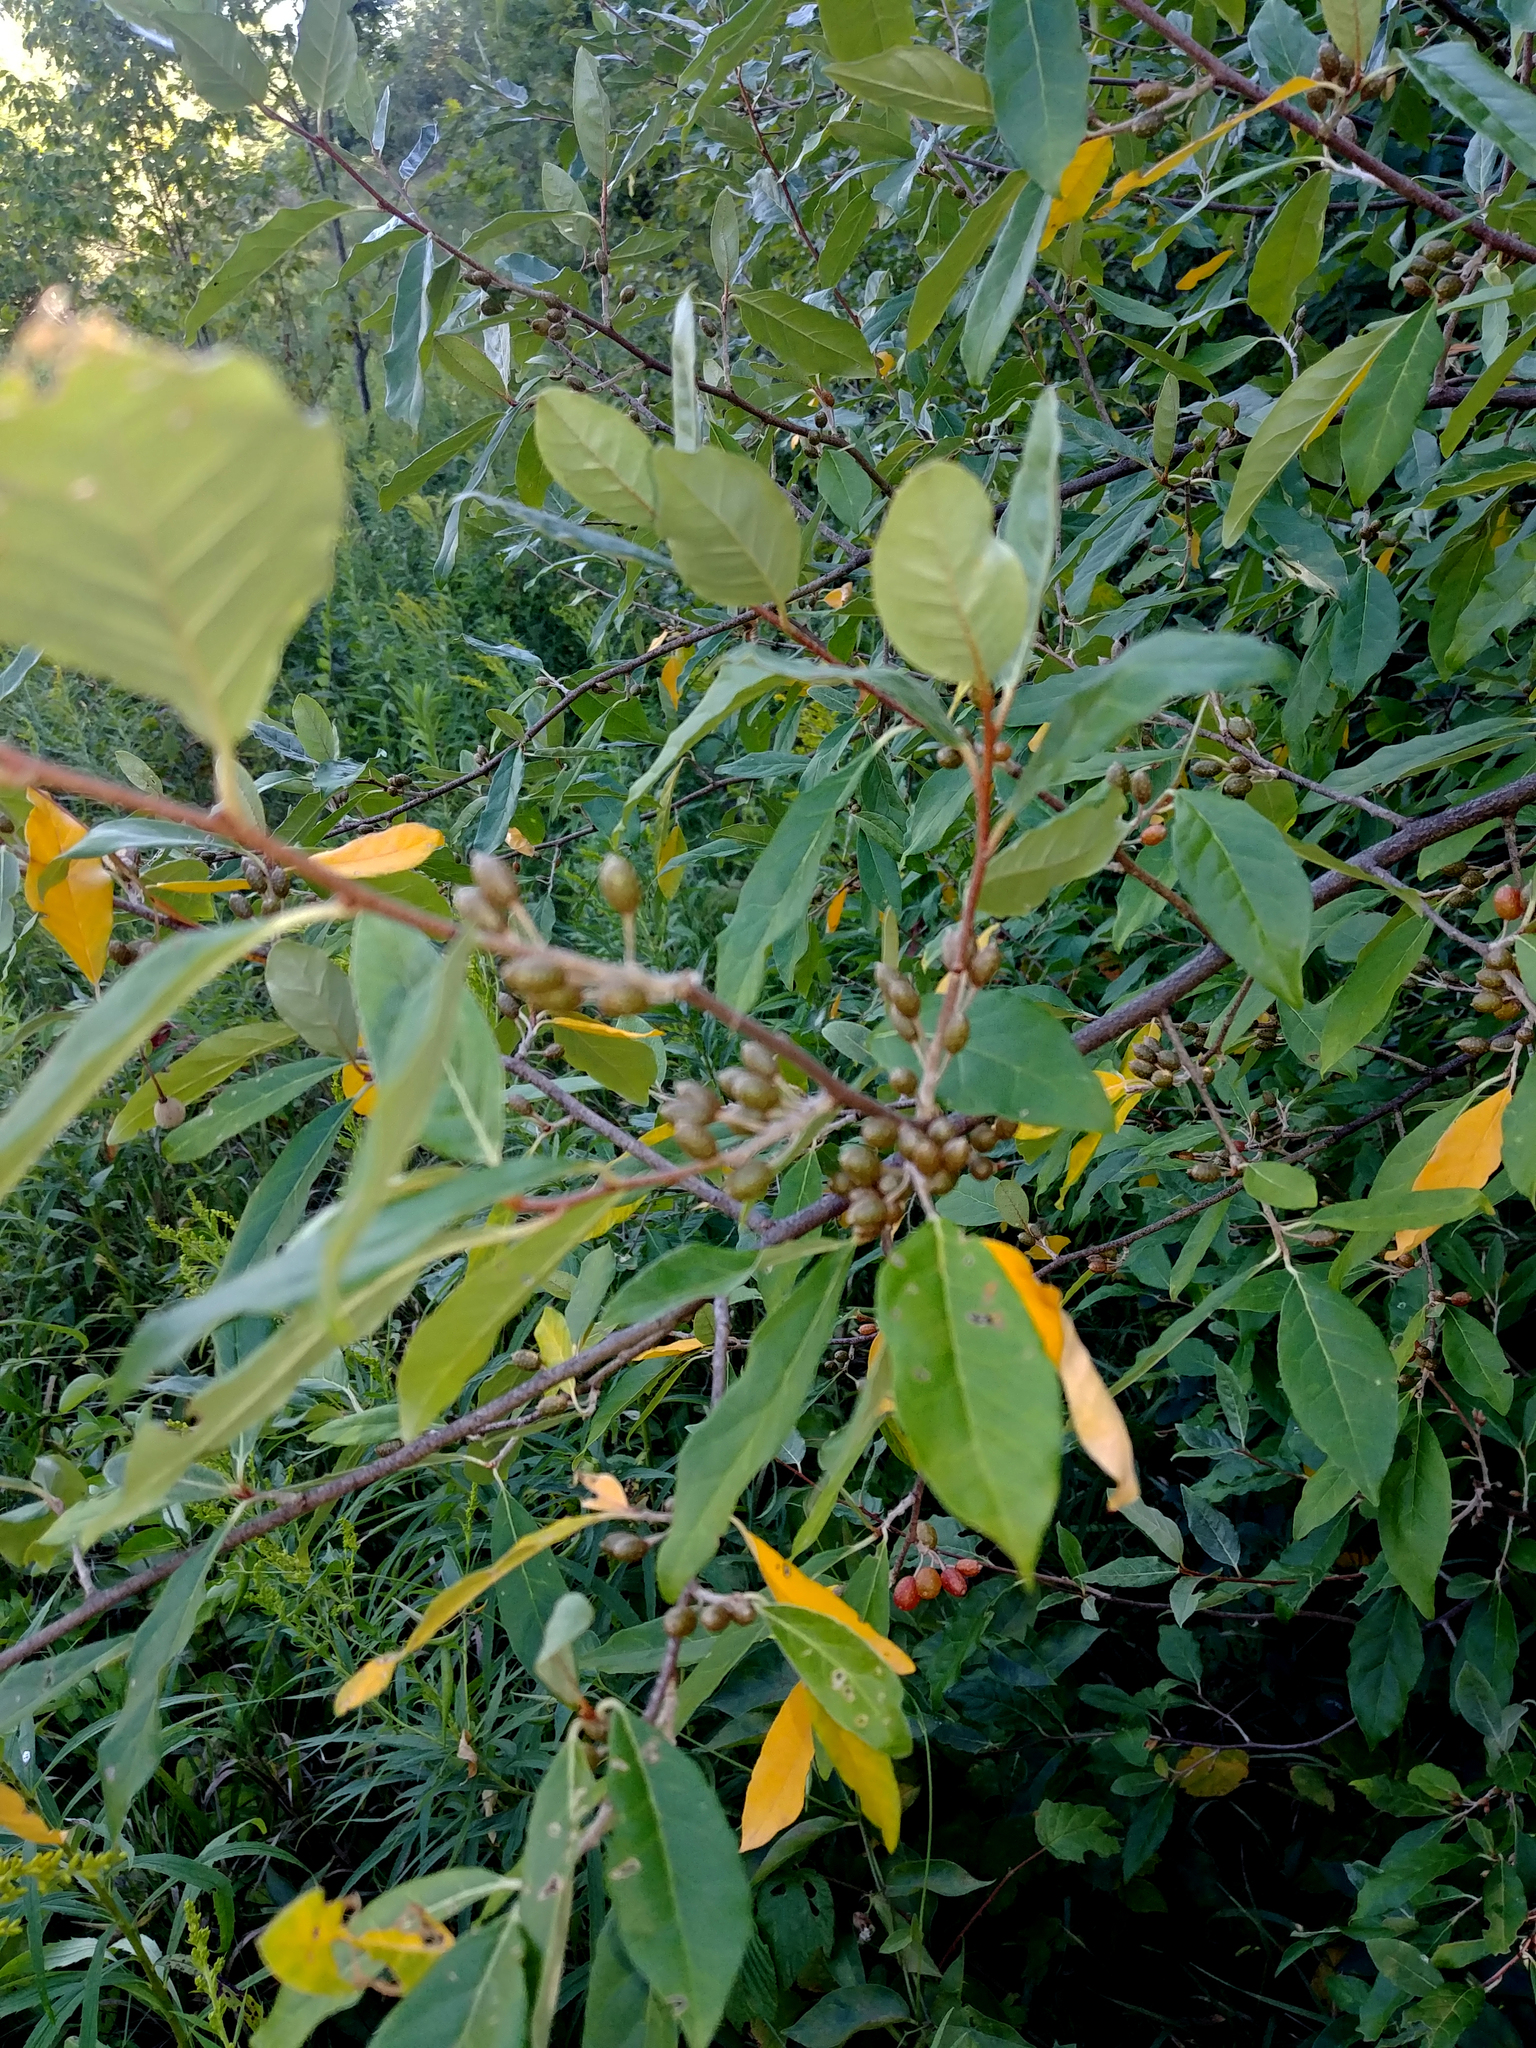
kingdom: Plantae
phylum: Tracheophyta
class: Magnoliopsida
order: Rosales
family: Elaeagnaceae
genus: Elaeagnus
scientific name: Elaeagnus umbellata
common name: Autumn olive
